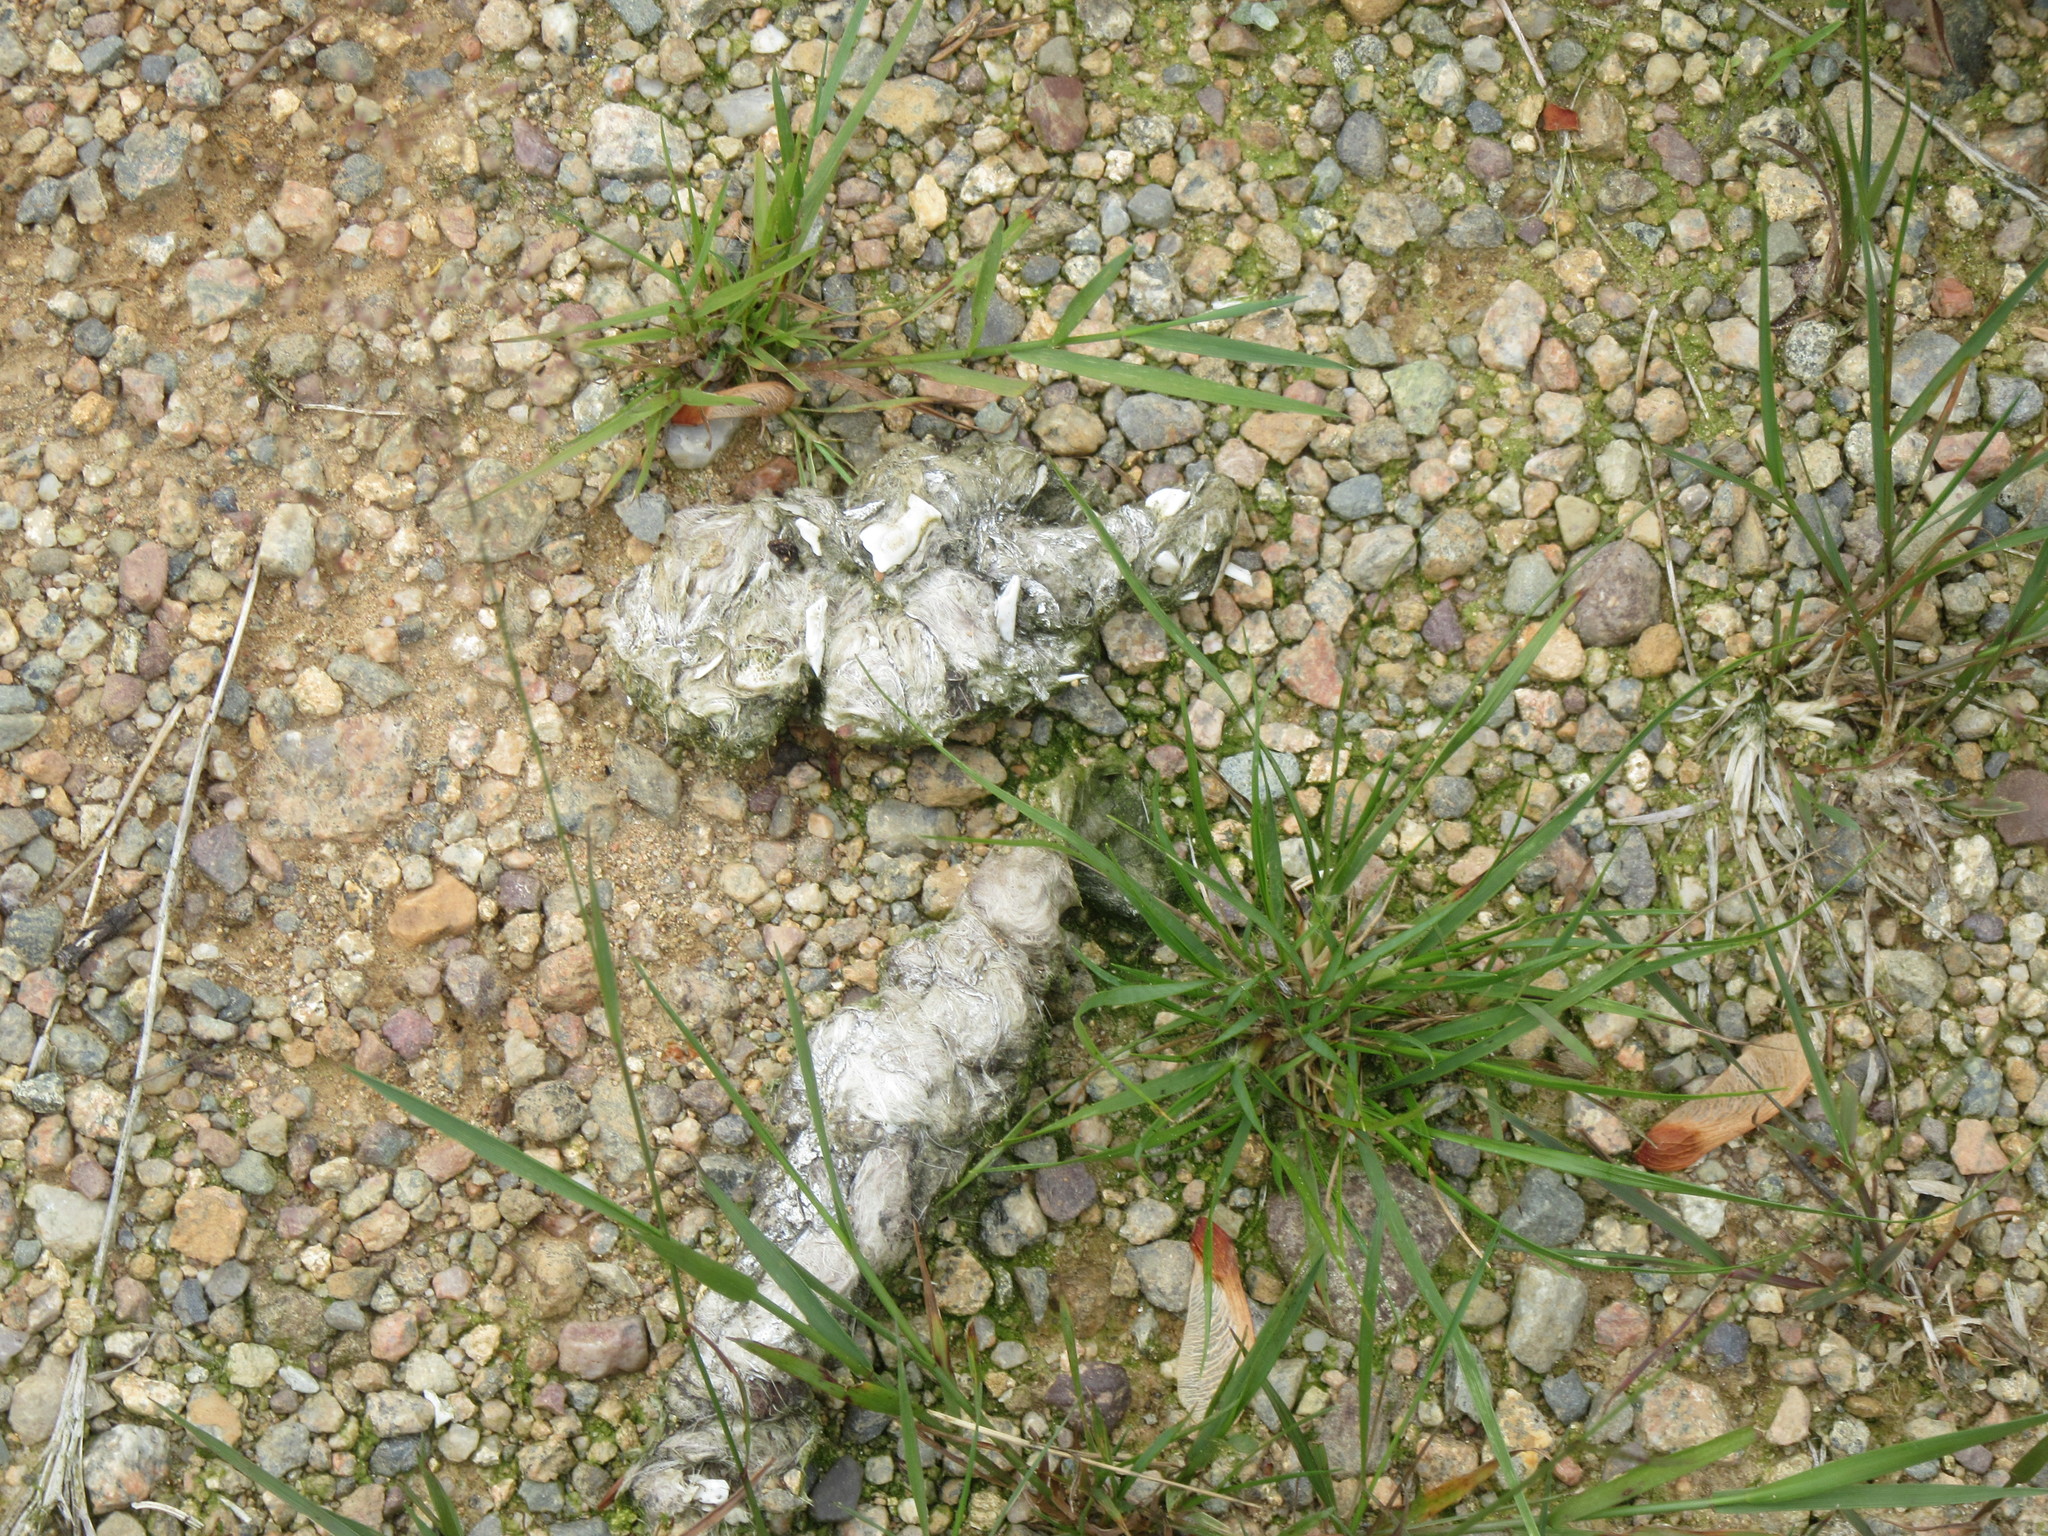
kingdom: Animalia
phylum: Chordata
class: Mammalia
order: Carnivora
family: Canidae
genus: Canis
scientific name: Canis latrans
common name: Coyote
